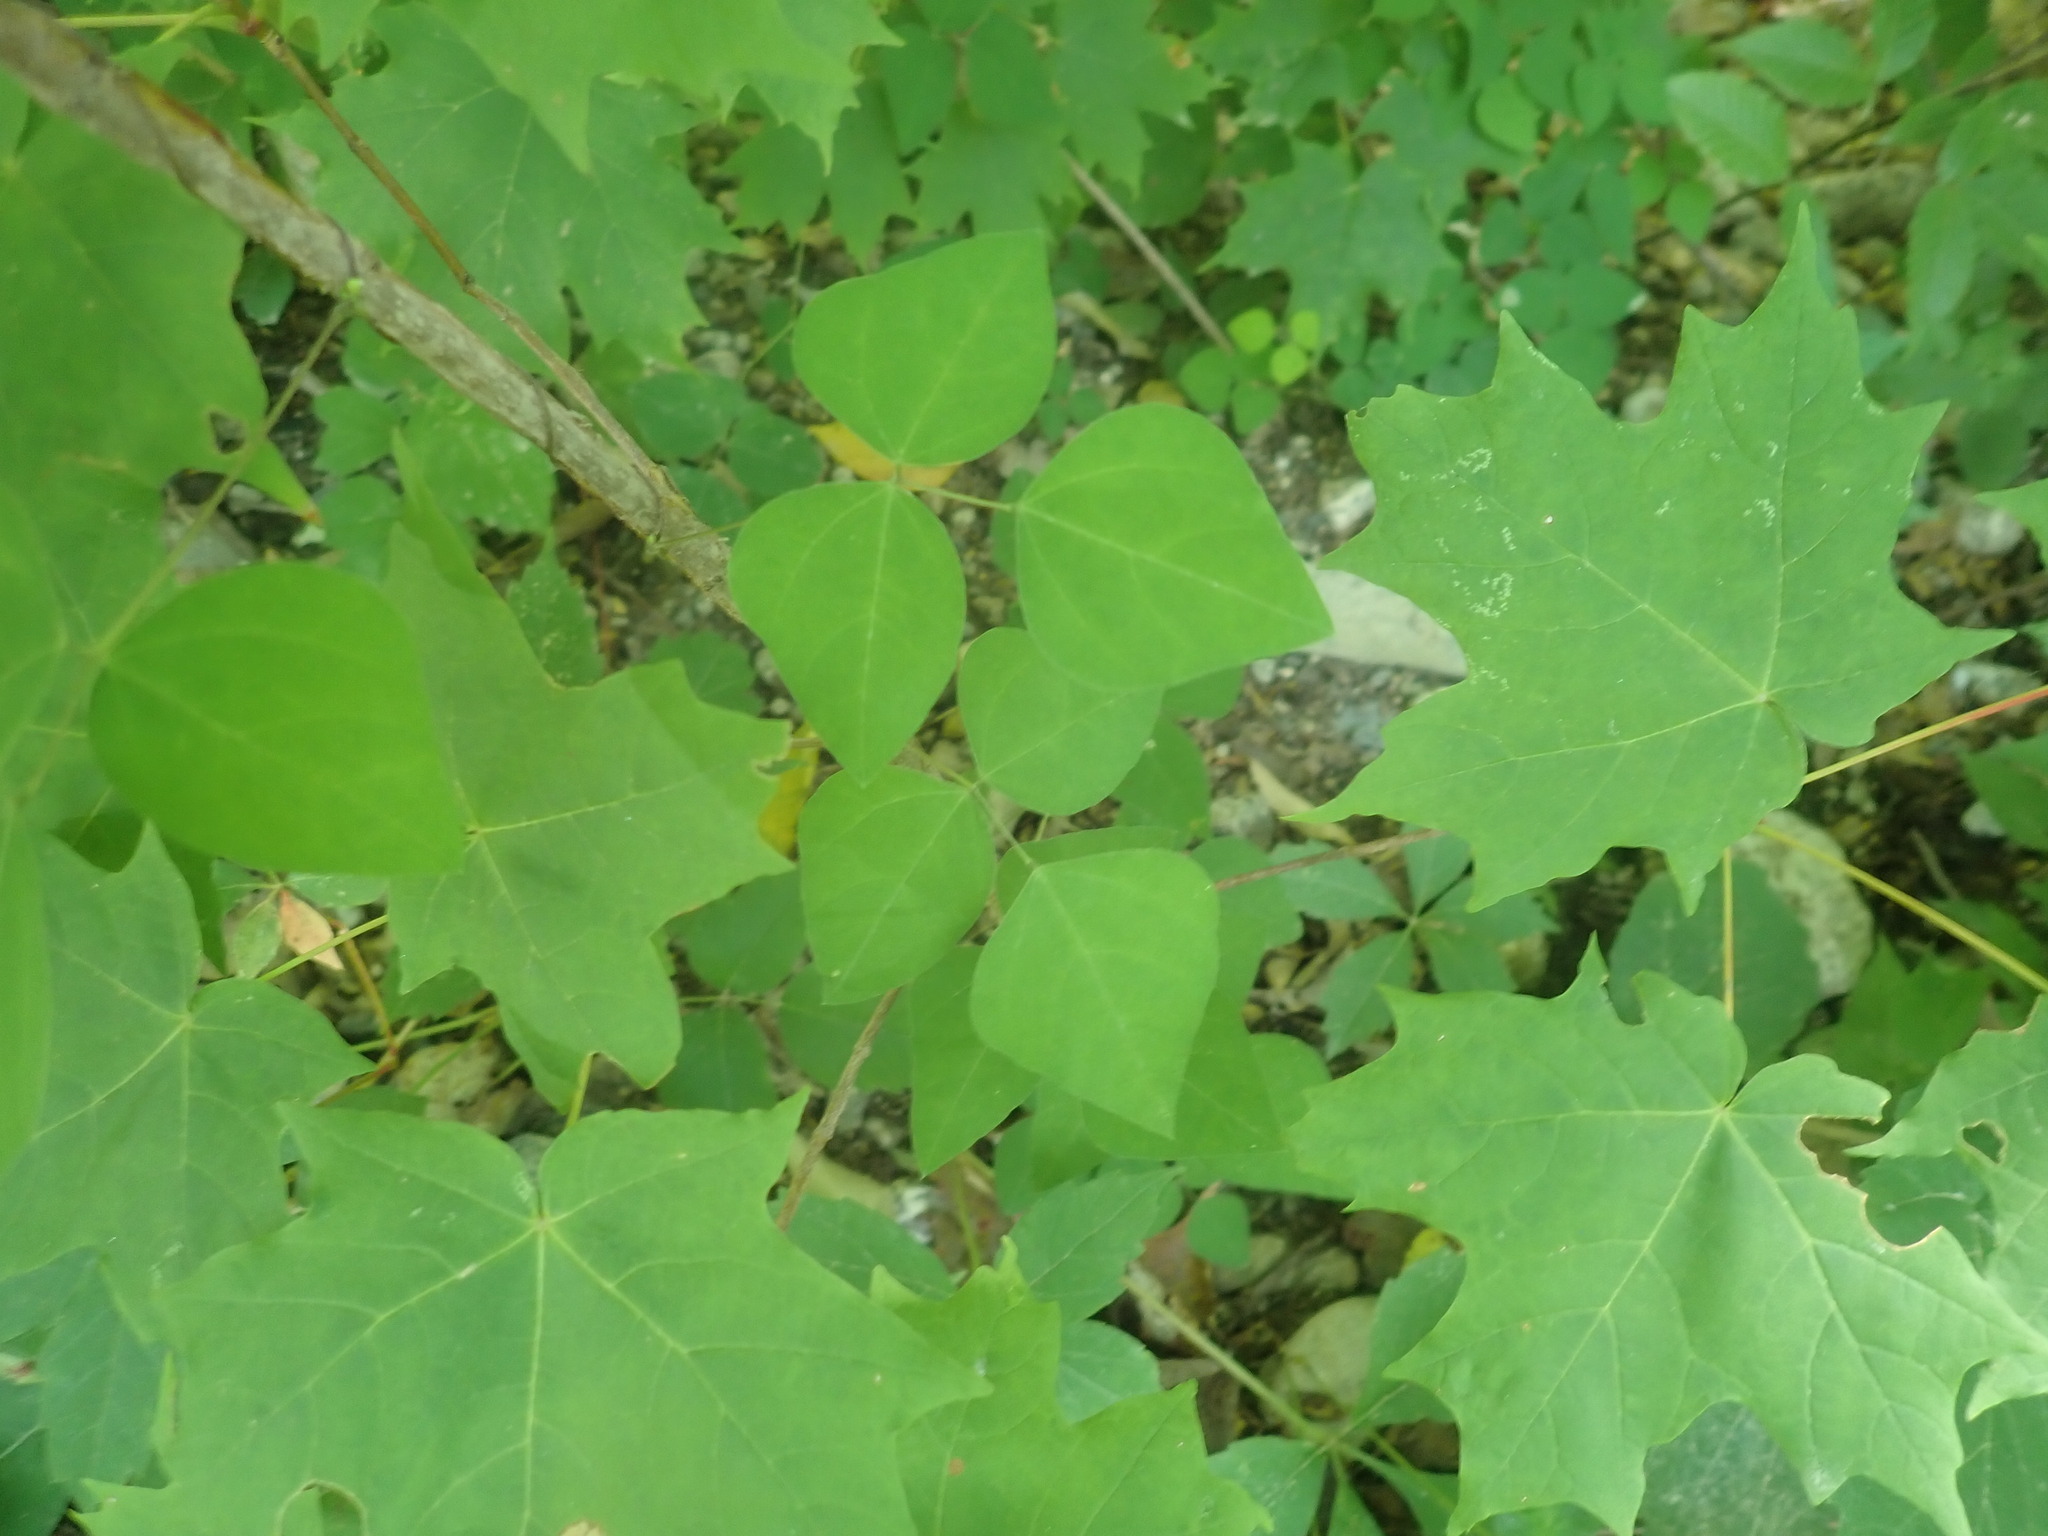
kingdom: Plantae
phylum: Tracheophyta
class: Magnoliopsida
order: Fabales
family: Fabaceae
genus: Amphicarpaea
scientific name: Amphicarpaea bracteata
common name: American hog peanut
